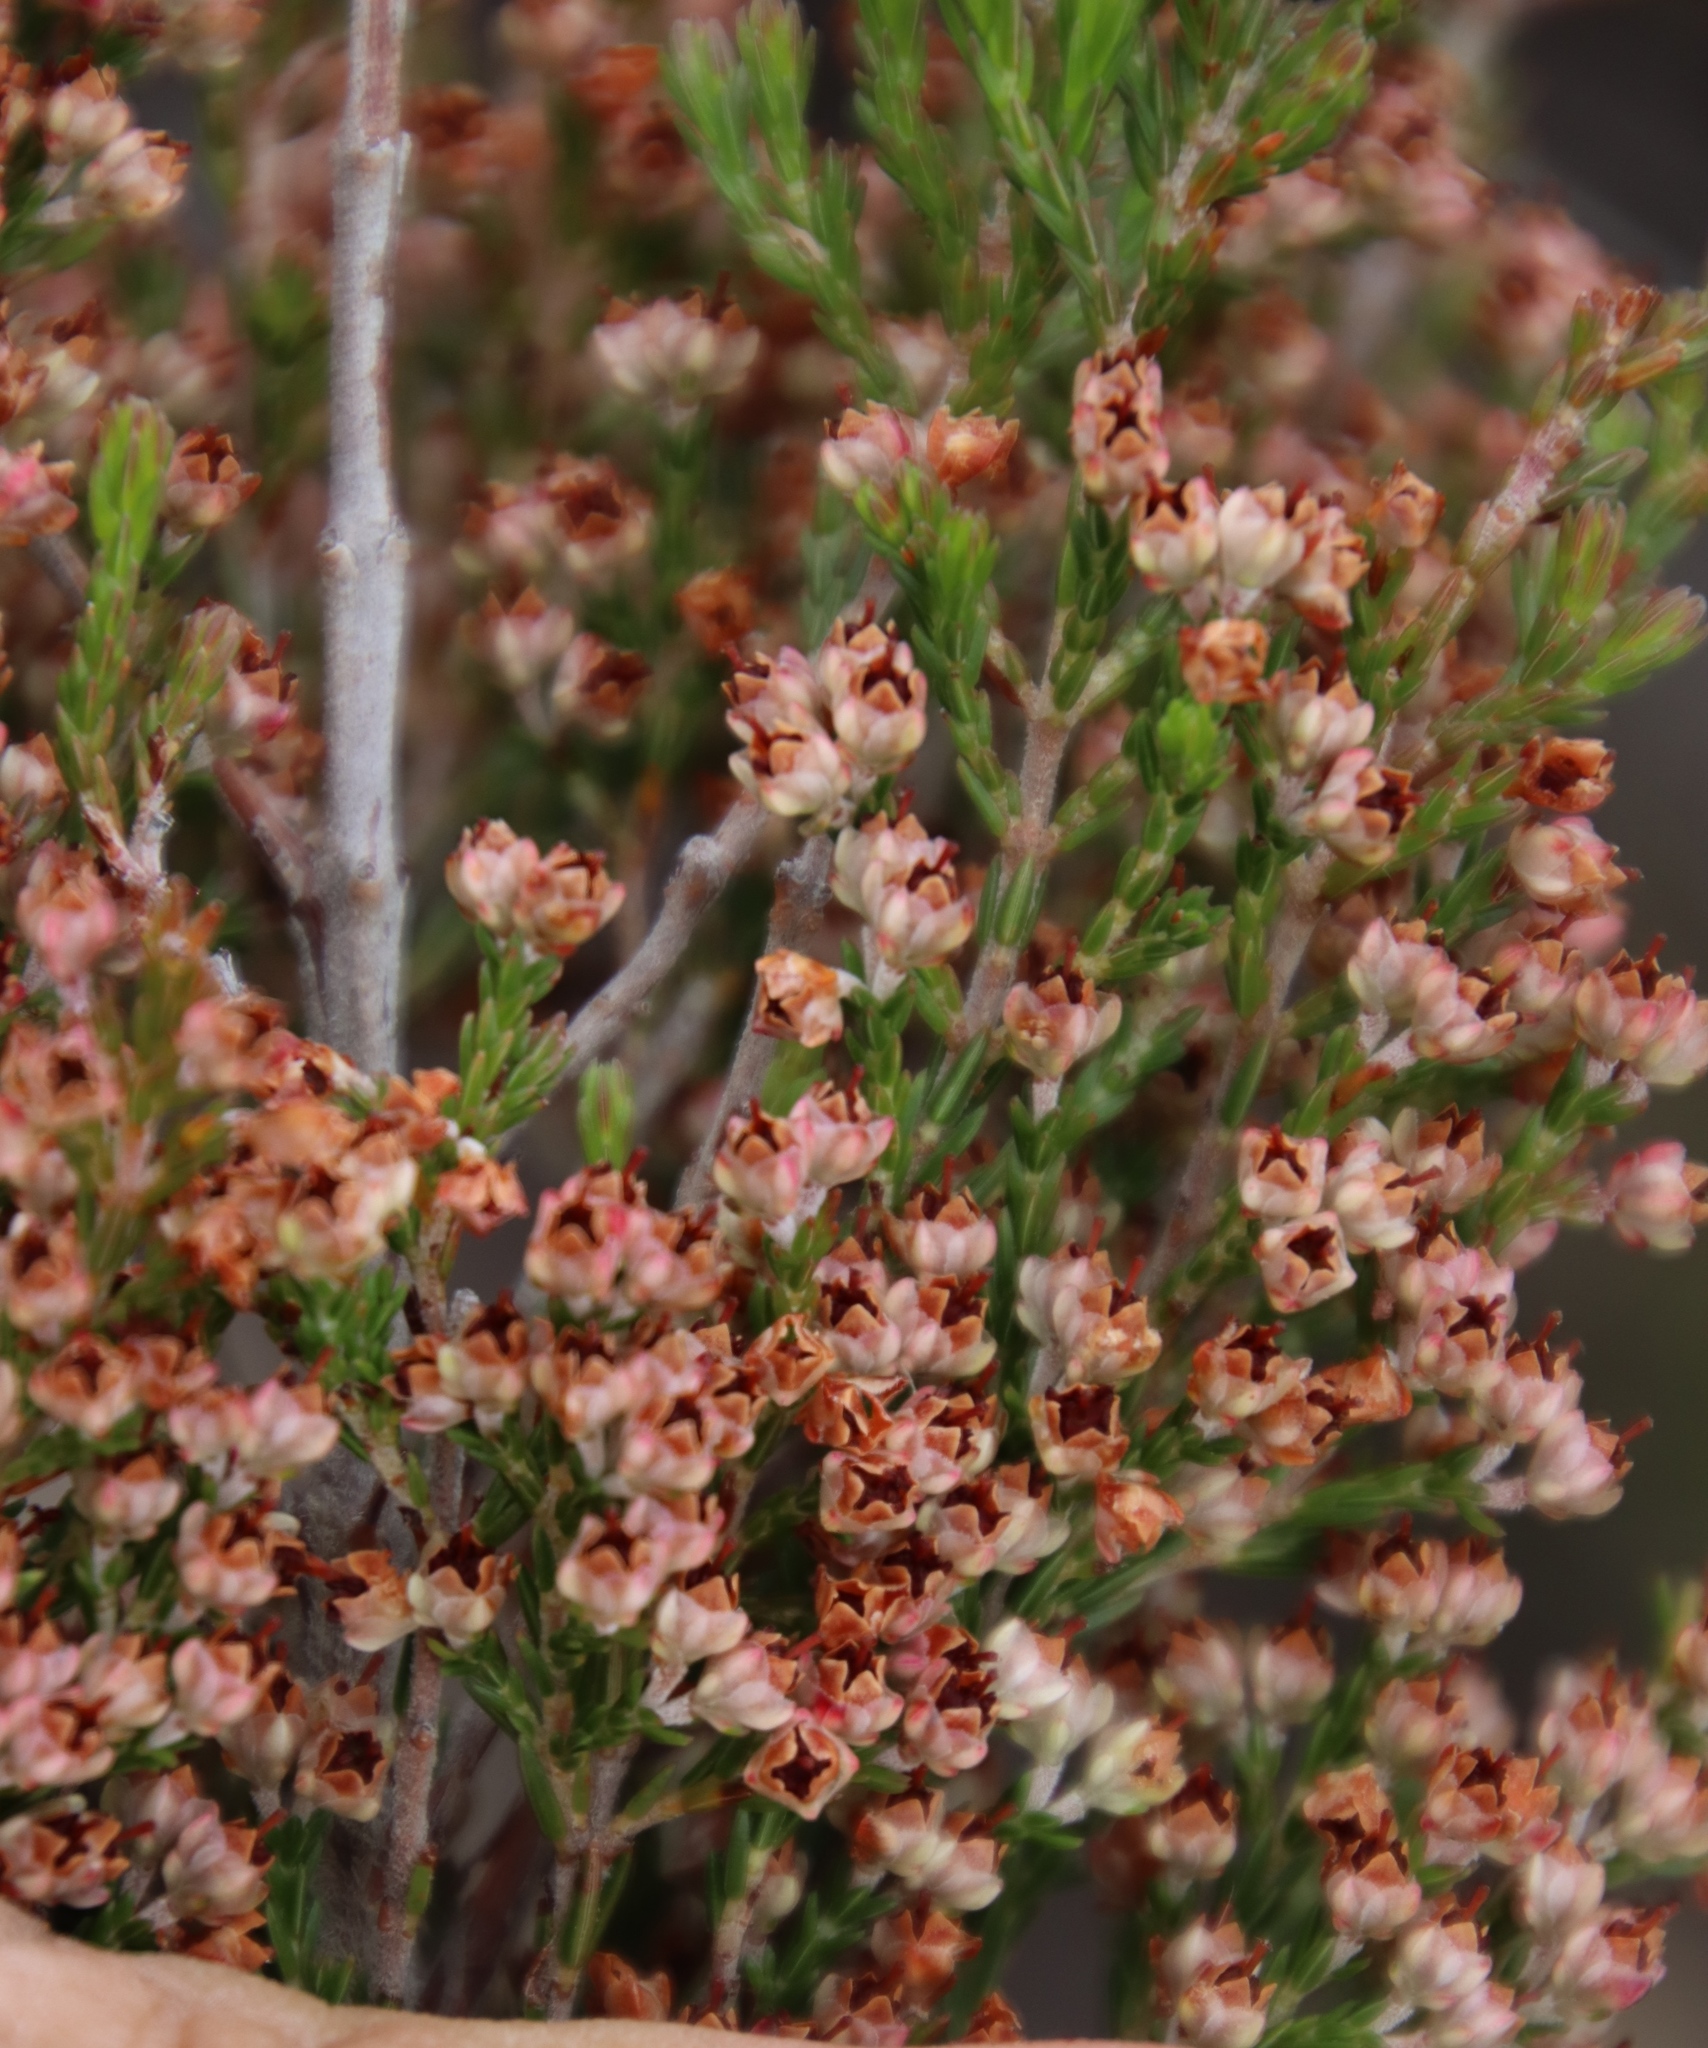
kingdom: Plantae
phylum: Tracheophyta
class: Magnoliopsida
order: Ericales
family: Ericaceae
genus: Erica
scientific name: Erica lucida
